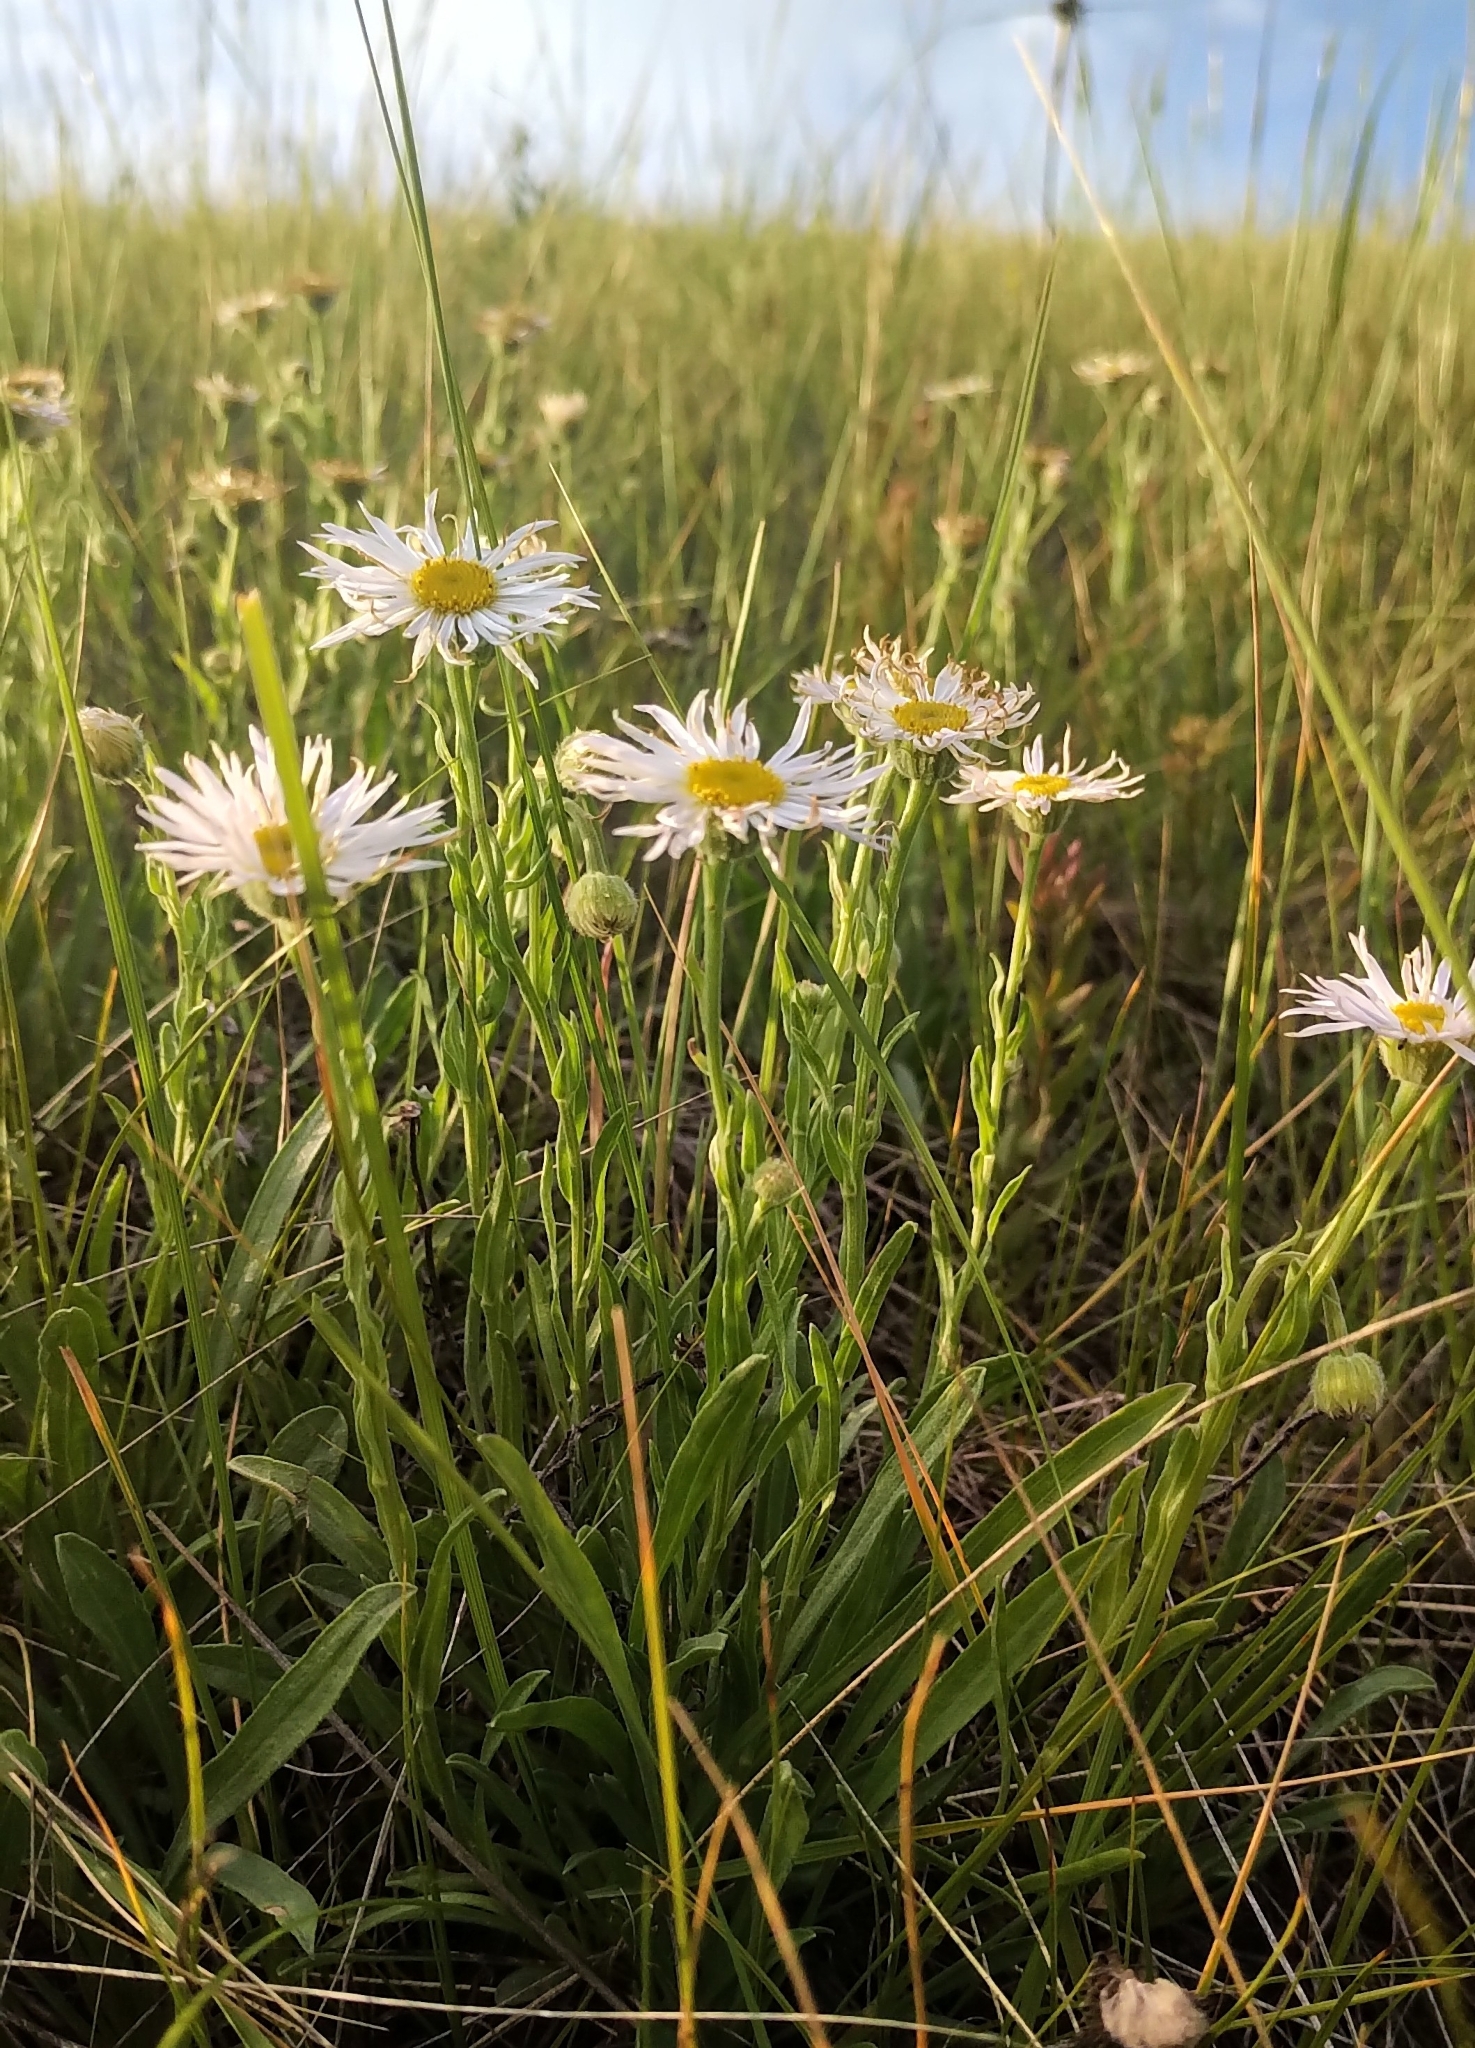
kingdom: Plantae
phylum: Tracheophyta
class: Magnoliopsida
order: Asterales
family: Asteraceae
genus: Erigeron
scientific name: Erigeron caespitosus
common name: Tufted fleabane
